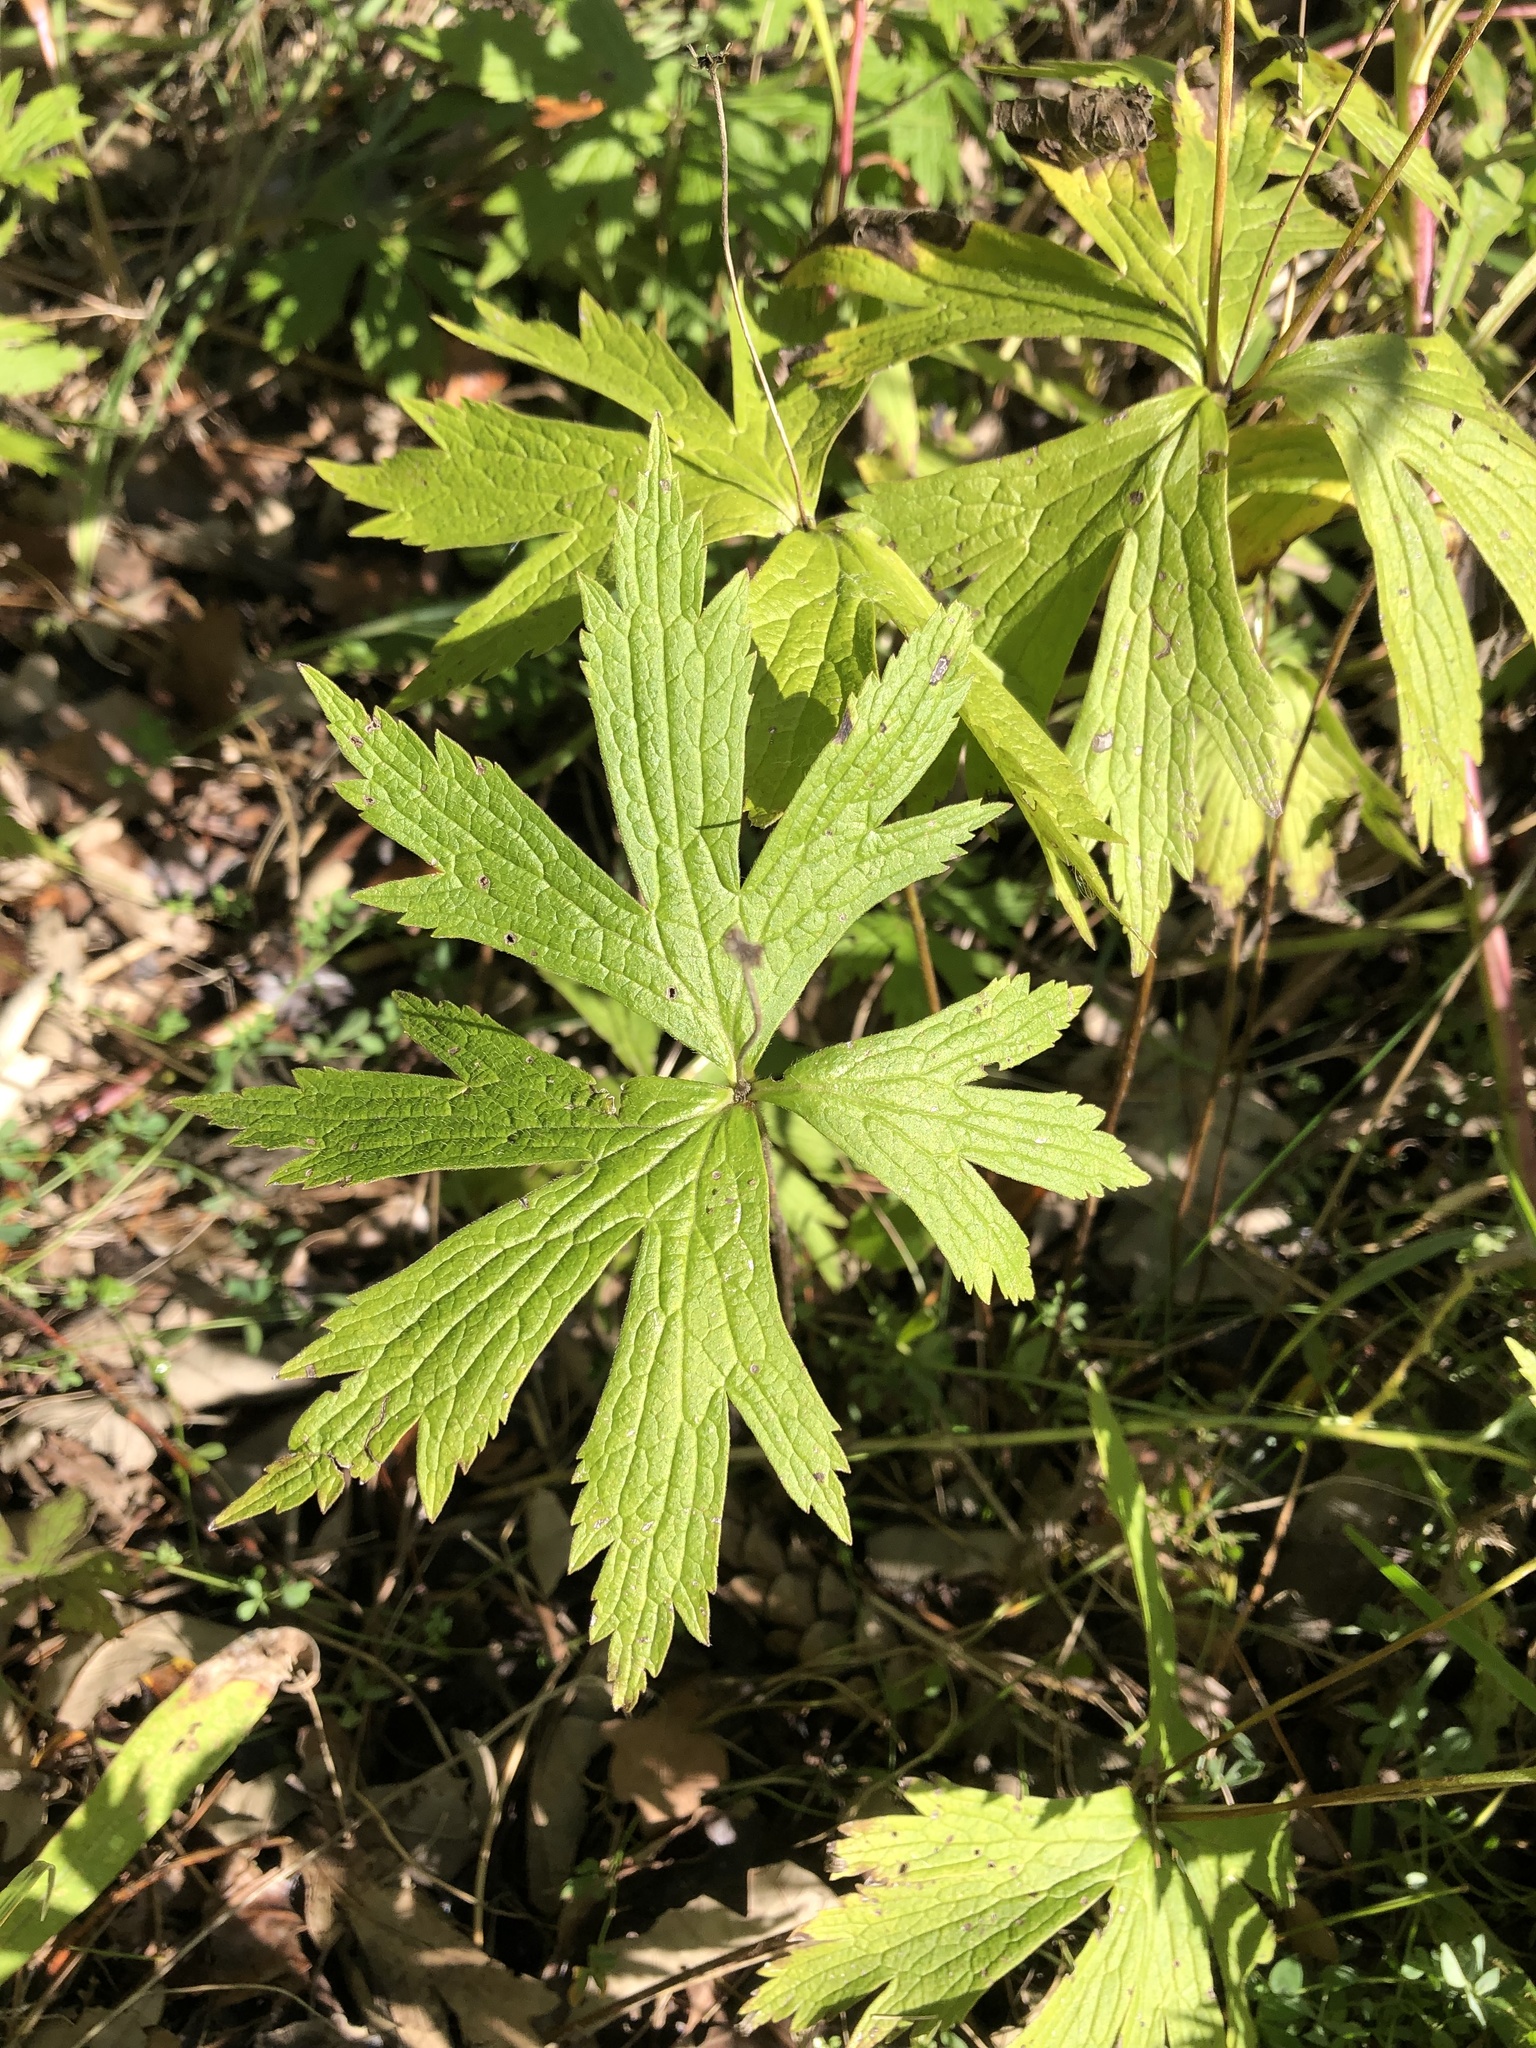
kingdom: Plantae
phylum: Tracheophyta
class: Magnoliopsida
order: Ranunculales
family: Ranunculaceae
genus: Anemonastrum
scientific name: Anemonastrum canadense
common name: Canada anemone
